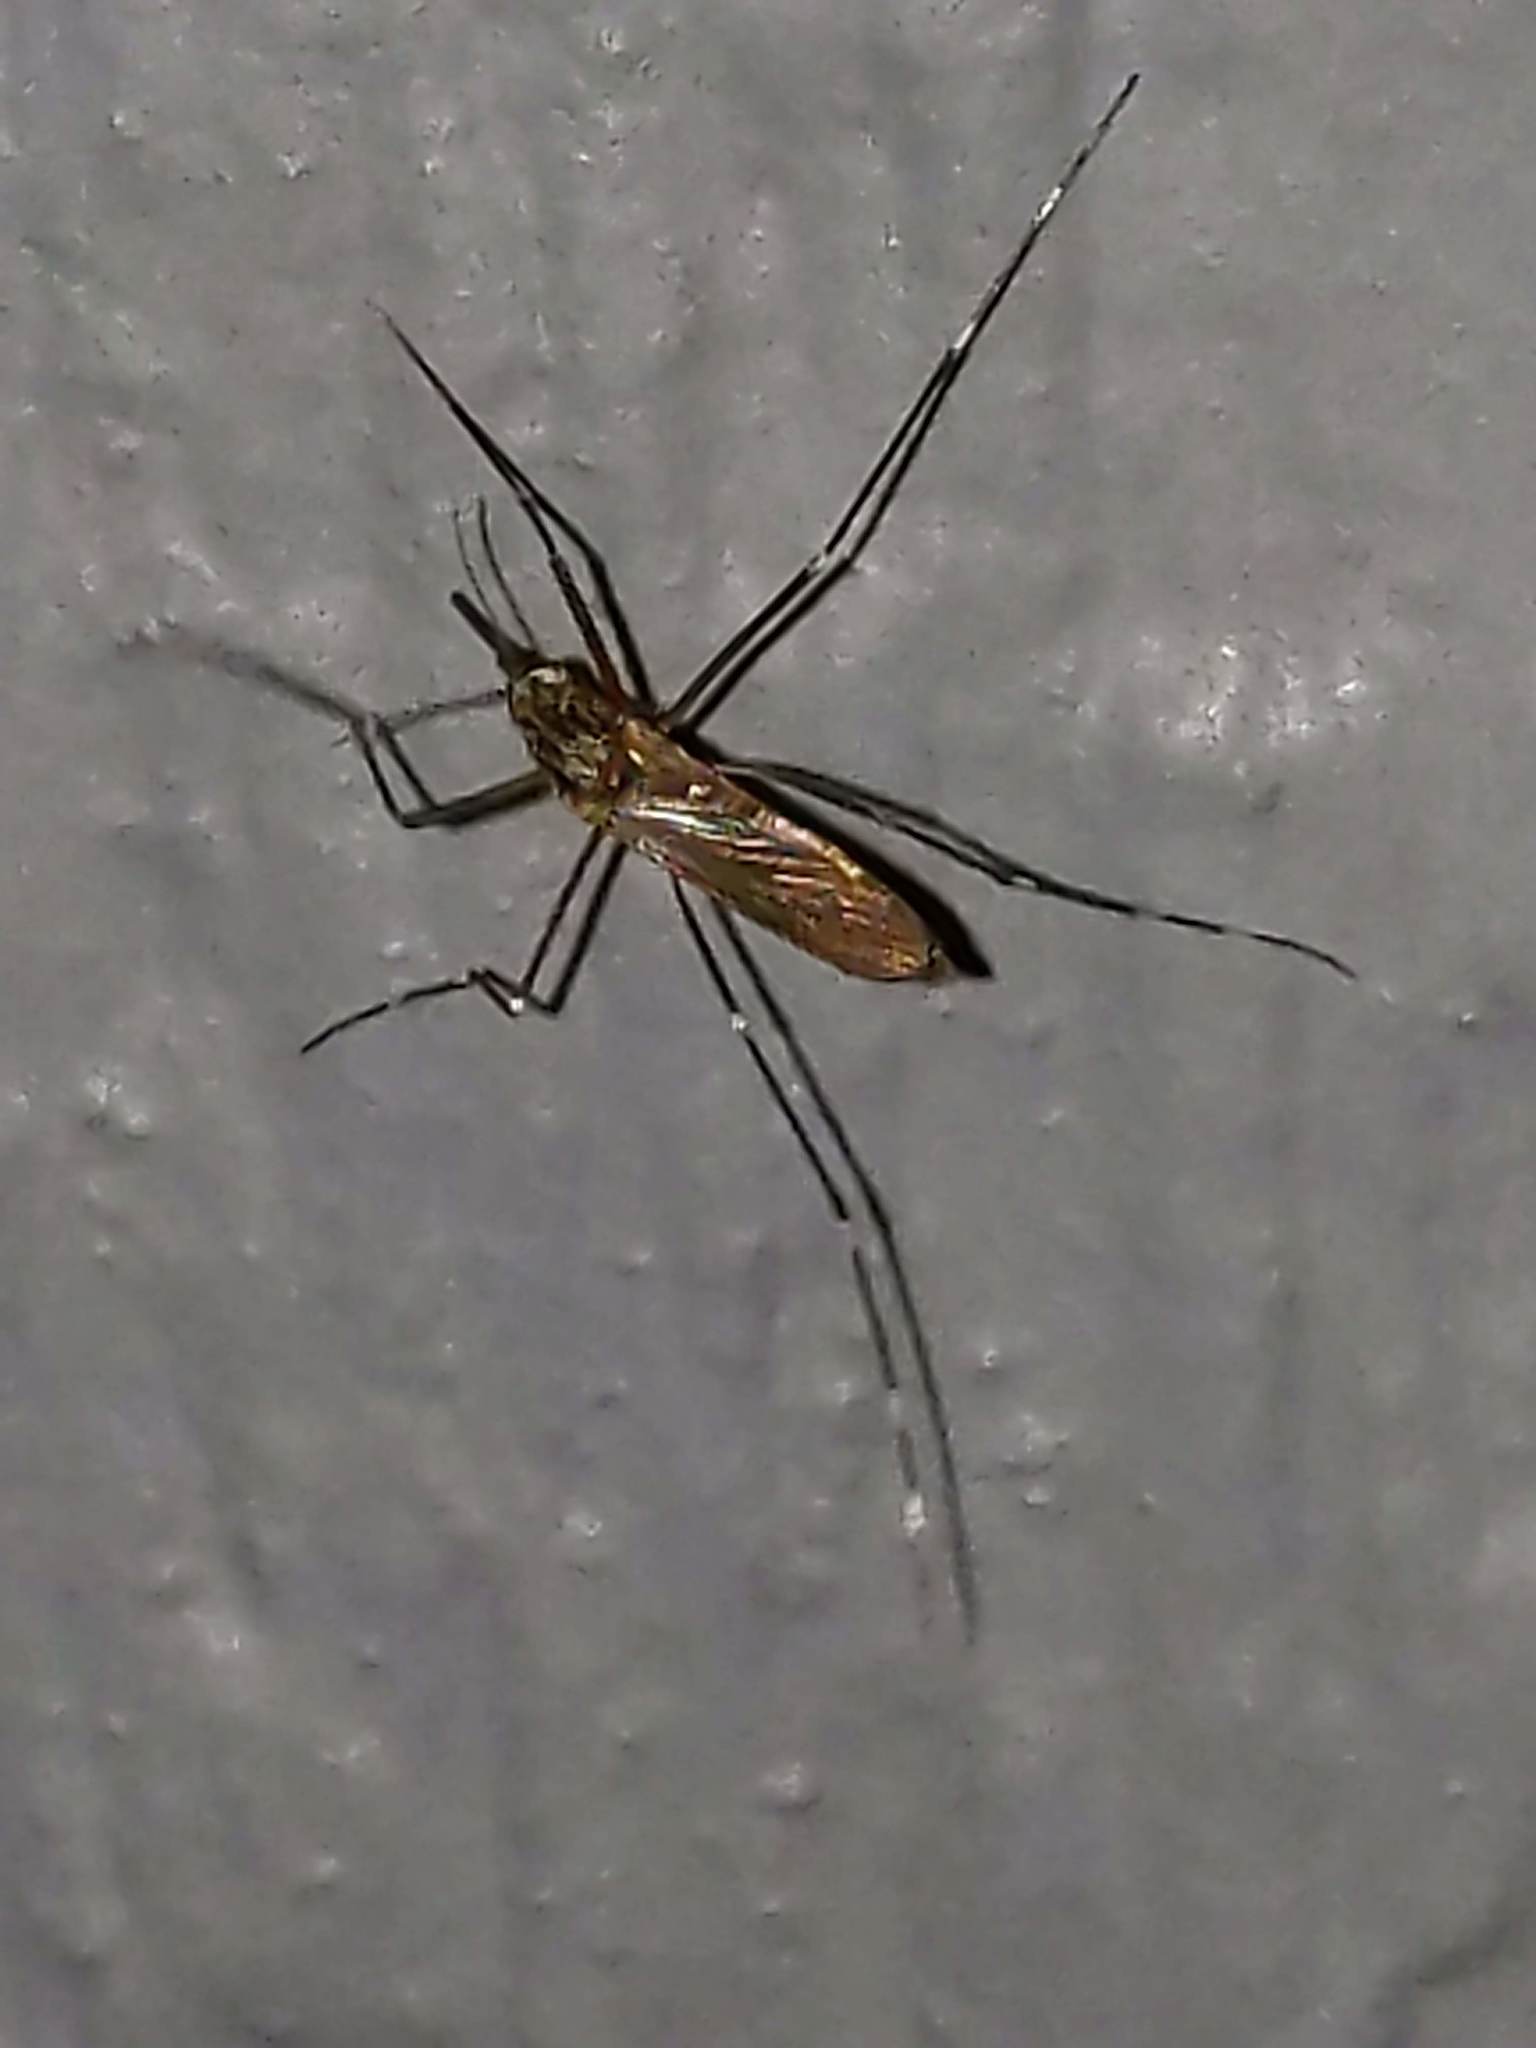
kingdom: Animalia
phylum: Arthropoda
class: Insecta
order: Diptera
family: Culicidae
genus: Aedes
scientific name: Aedes
